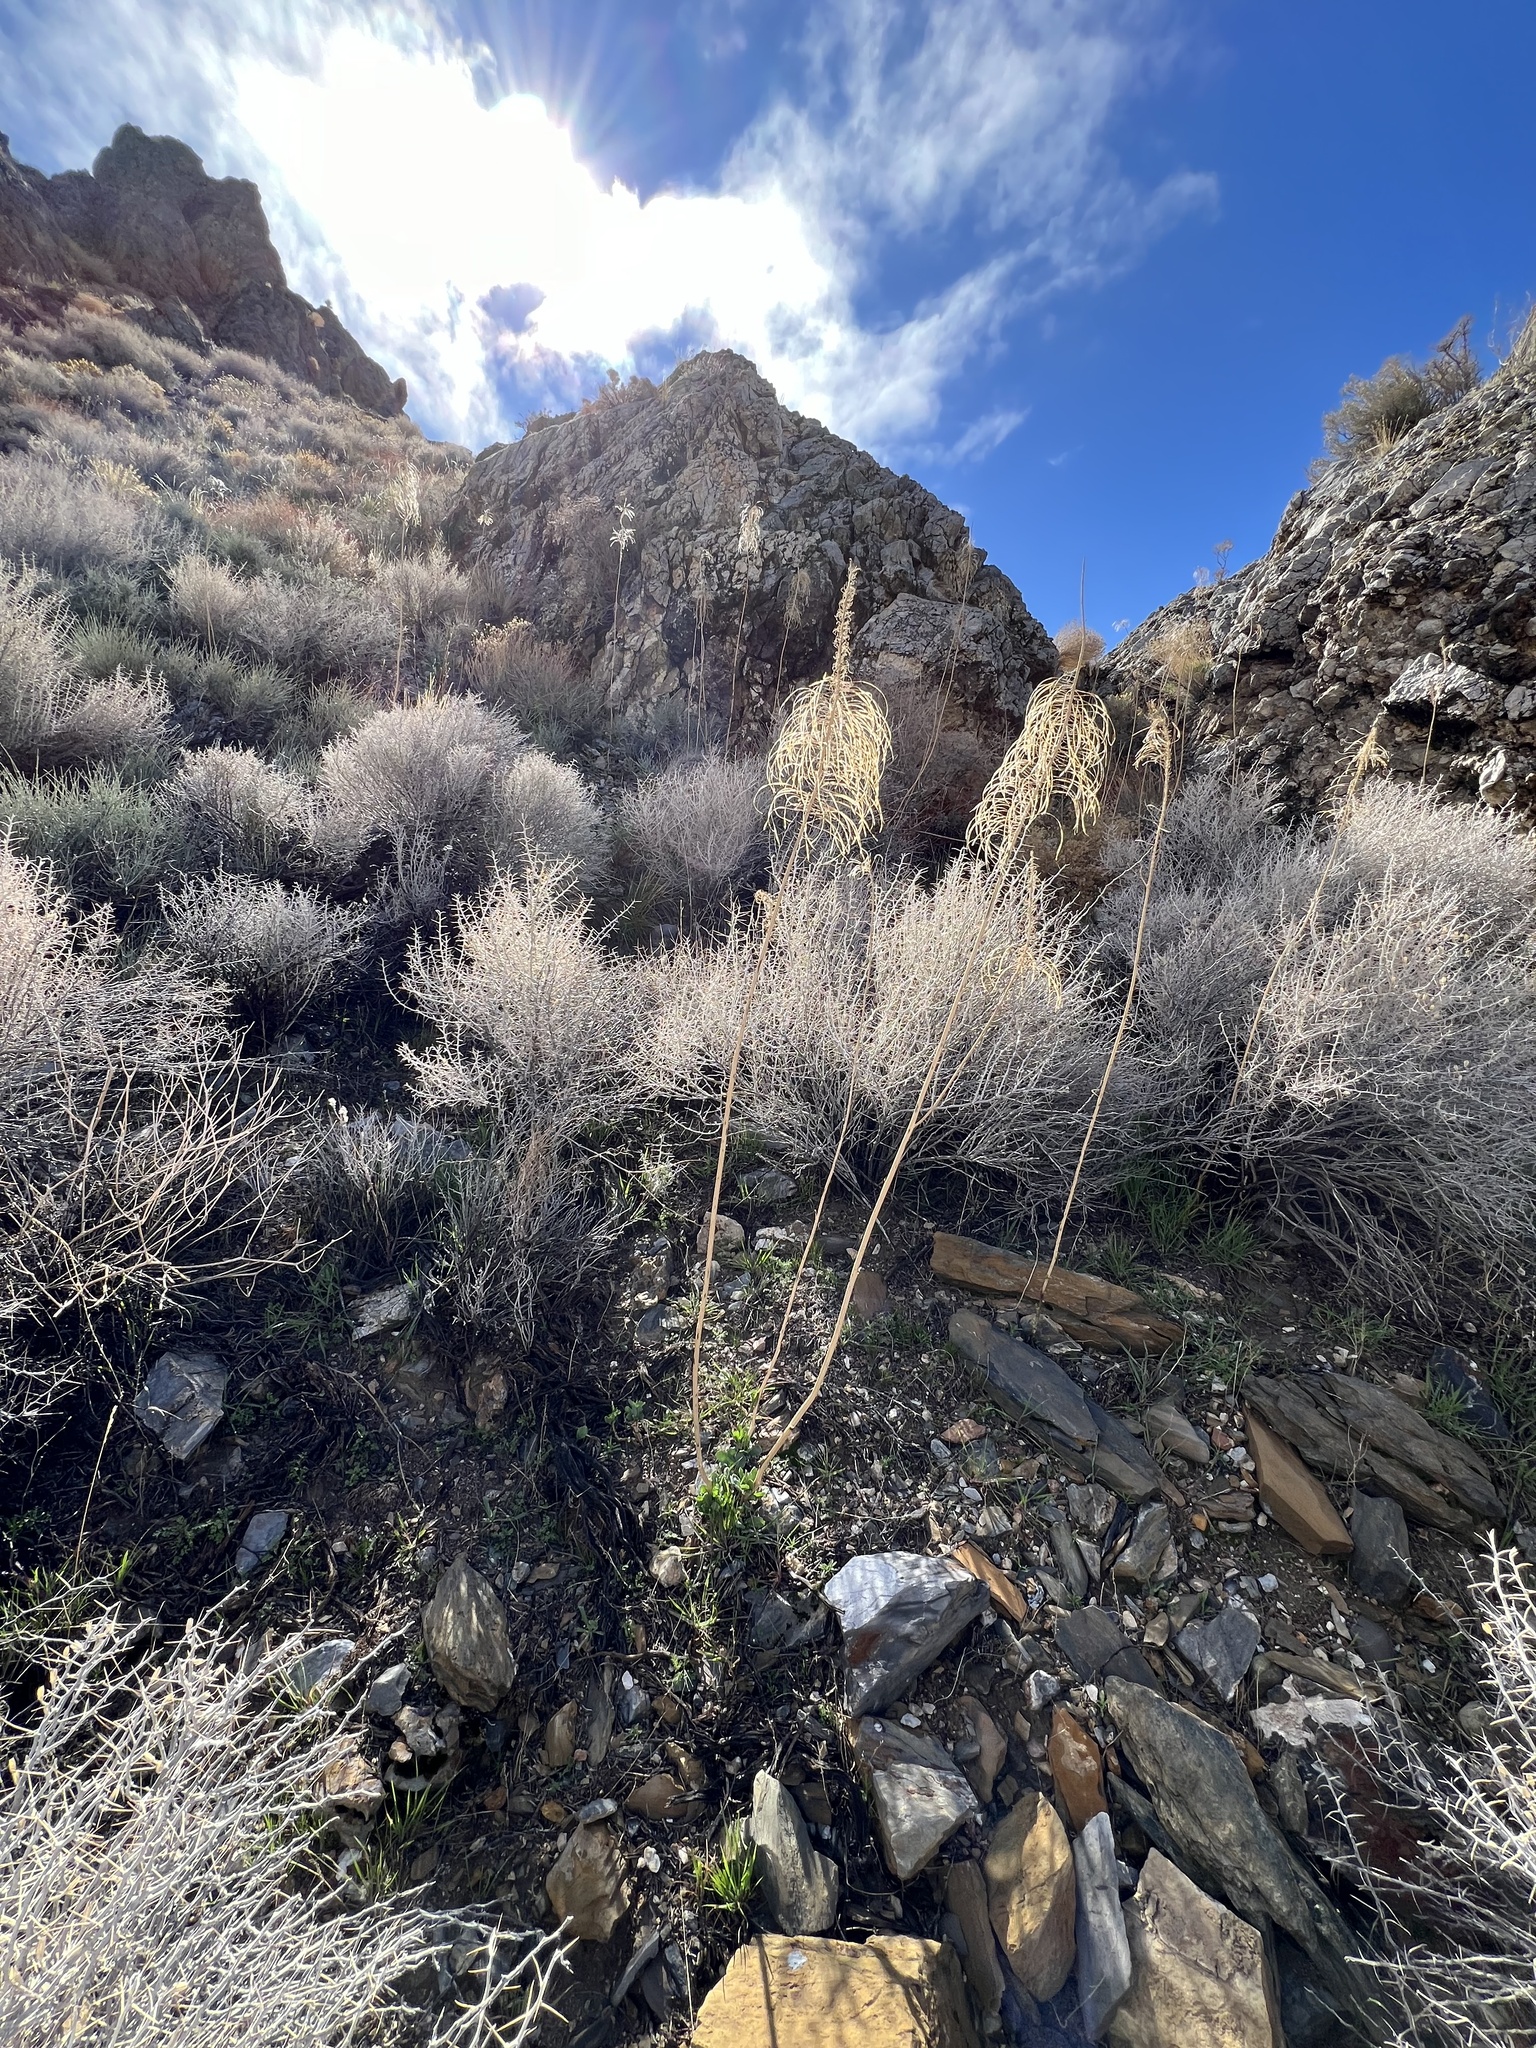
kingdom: Plantae
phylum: Tracheophyta
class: Magnoliopsida
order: Brassicales
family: Brassicaceae
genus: Stanleya
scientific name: Stanleya elata
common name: Panamint prince's plume
